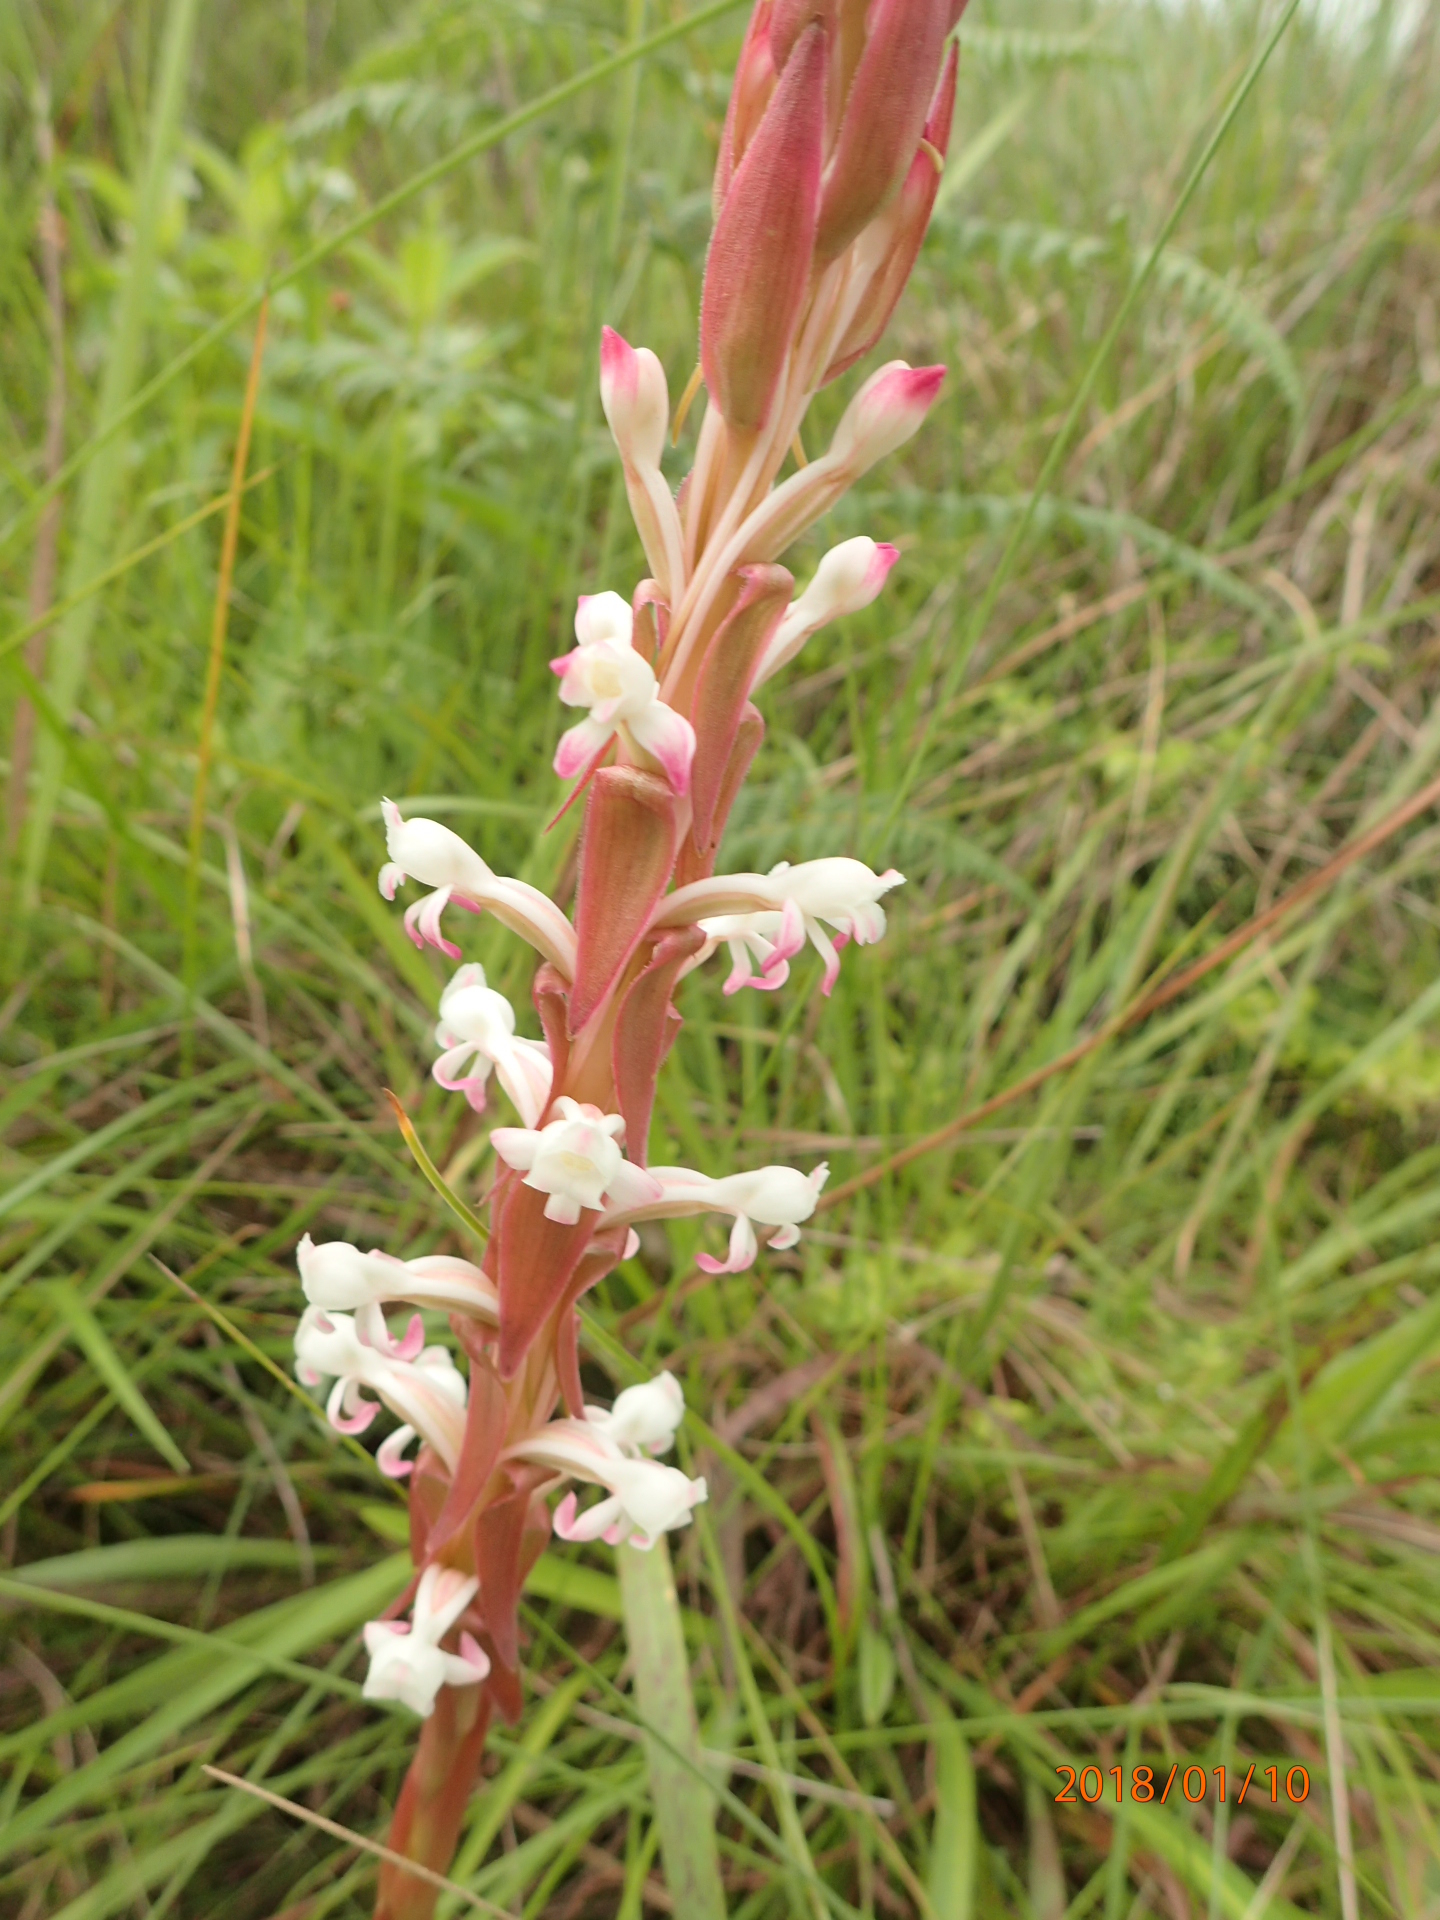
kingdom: Plantae
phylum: Tracheophyta
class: Liliopsida
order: Asparagales
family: Orchidaceae
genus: Satyrium
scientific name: Satyrium longicauda
